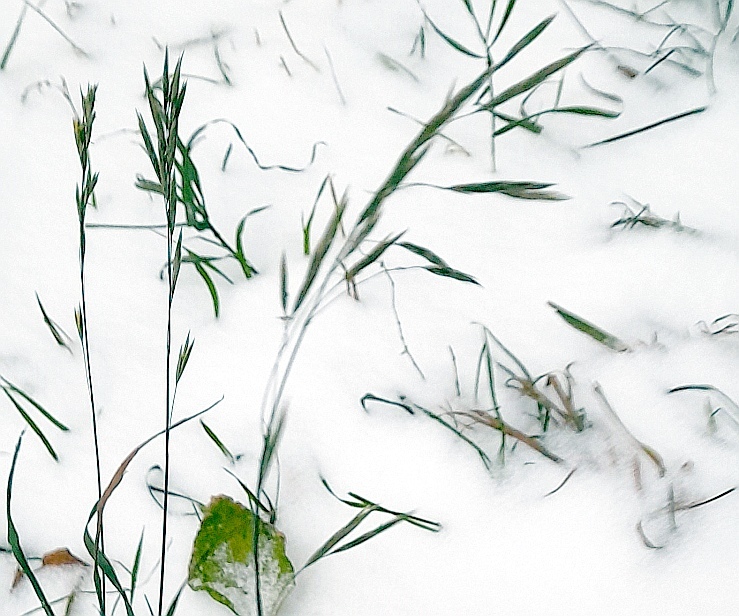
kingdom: Plantae
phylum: Tracheophyta
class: Liliopsida
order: Poales
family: Poaceae
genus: Bromus
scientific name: Bromus inermis
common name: Smooth brome
